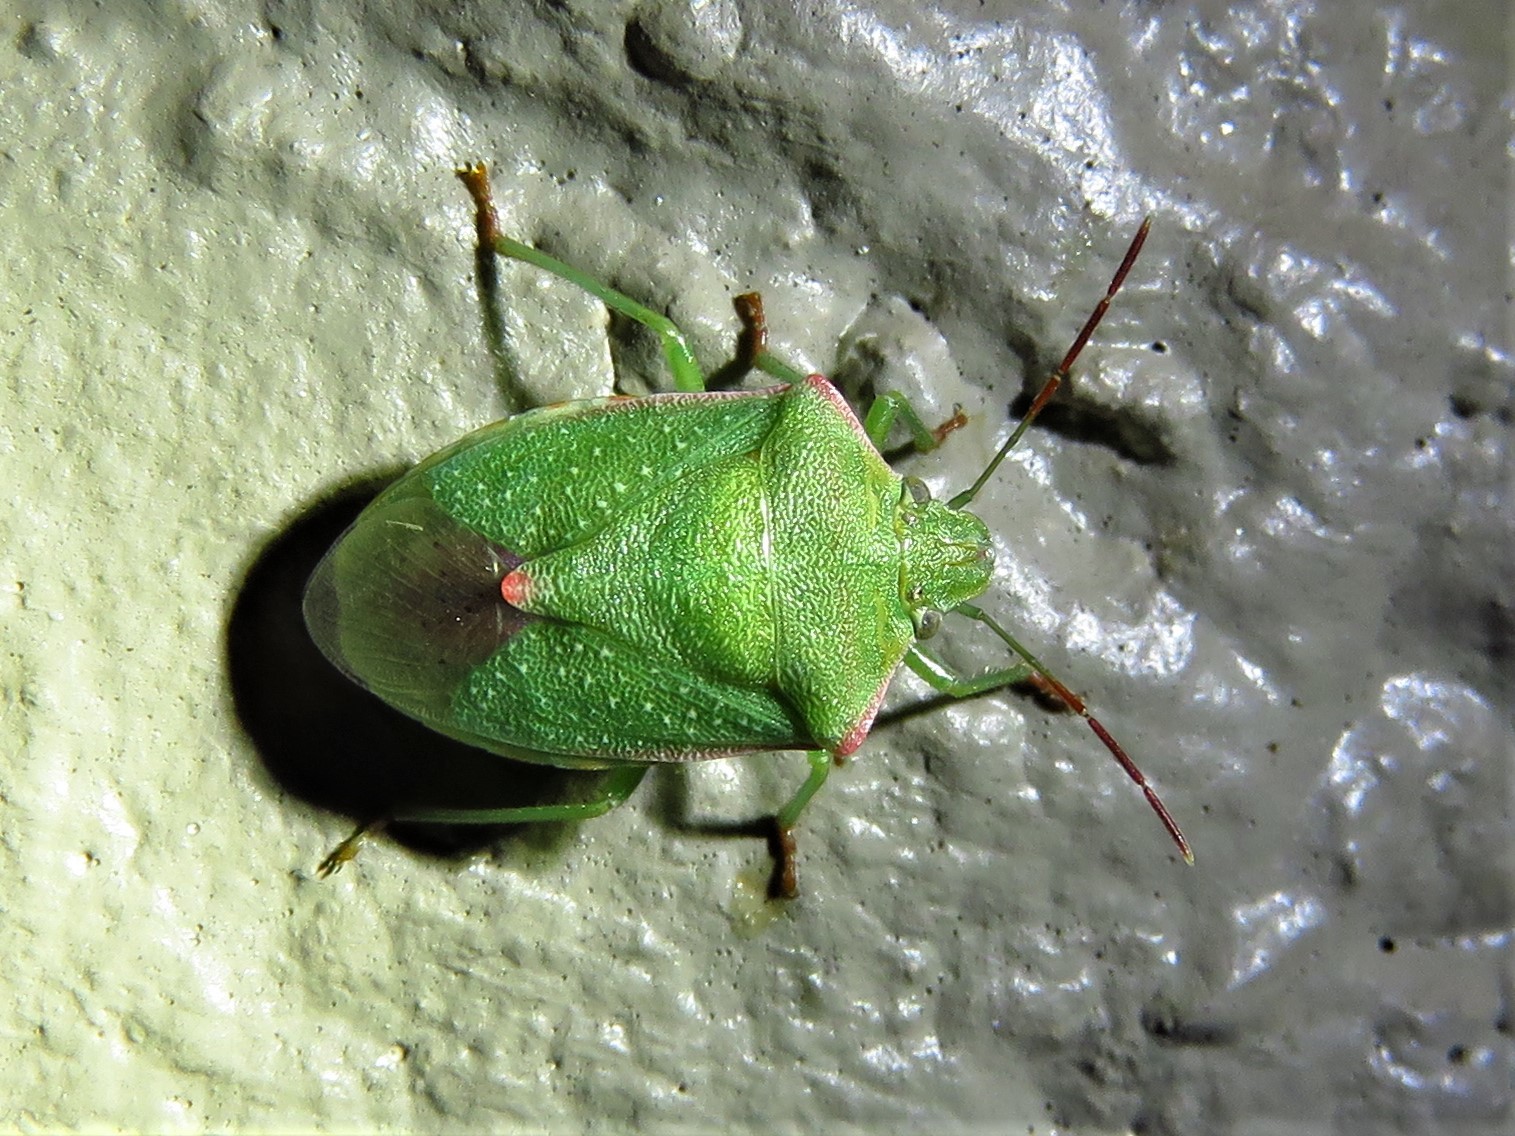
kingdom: Animalia
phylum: Arthropoda
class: Insecta
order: Hemiptera
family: Pentatomidae
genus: Thyanta
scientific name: Thyanta custator
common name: Stink bug
